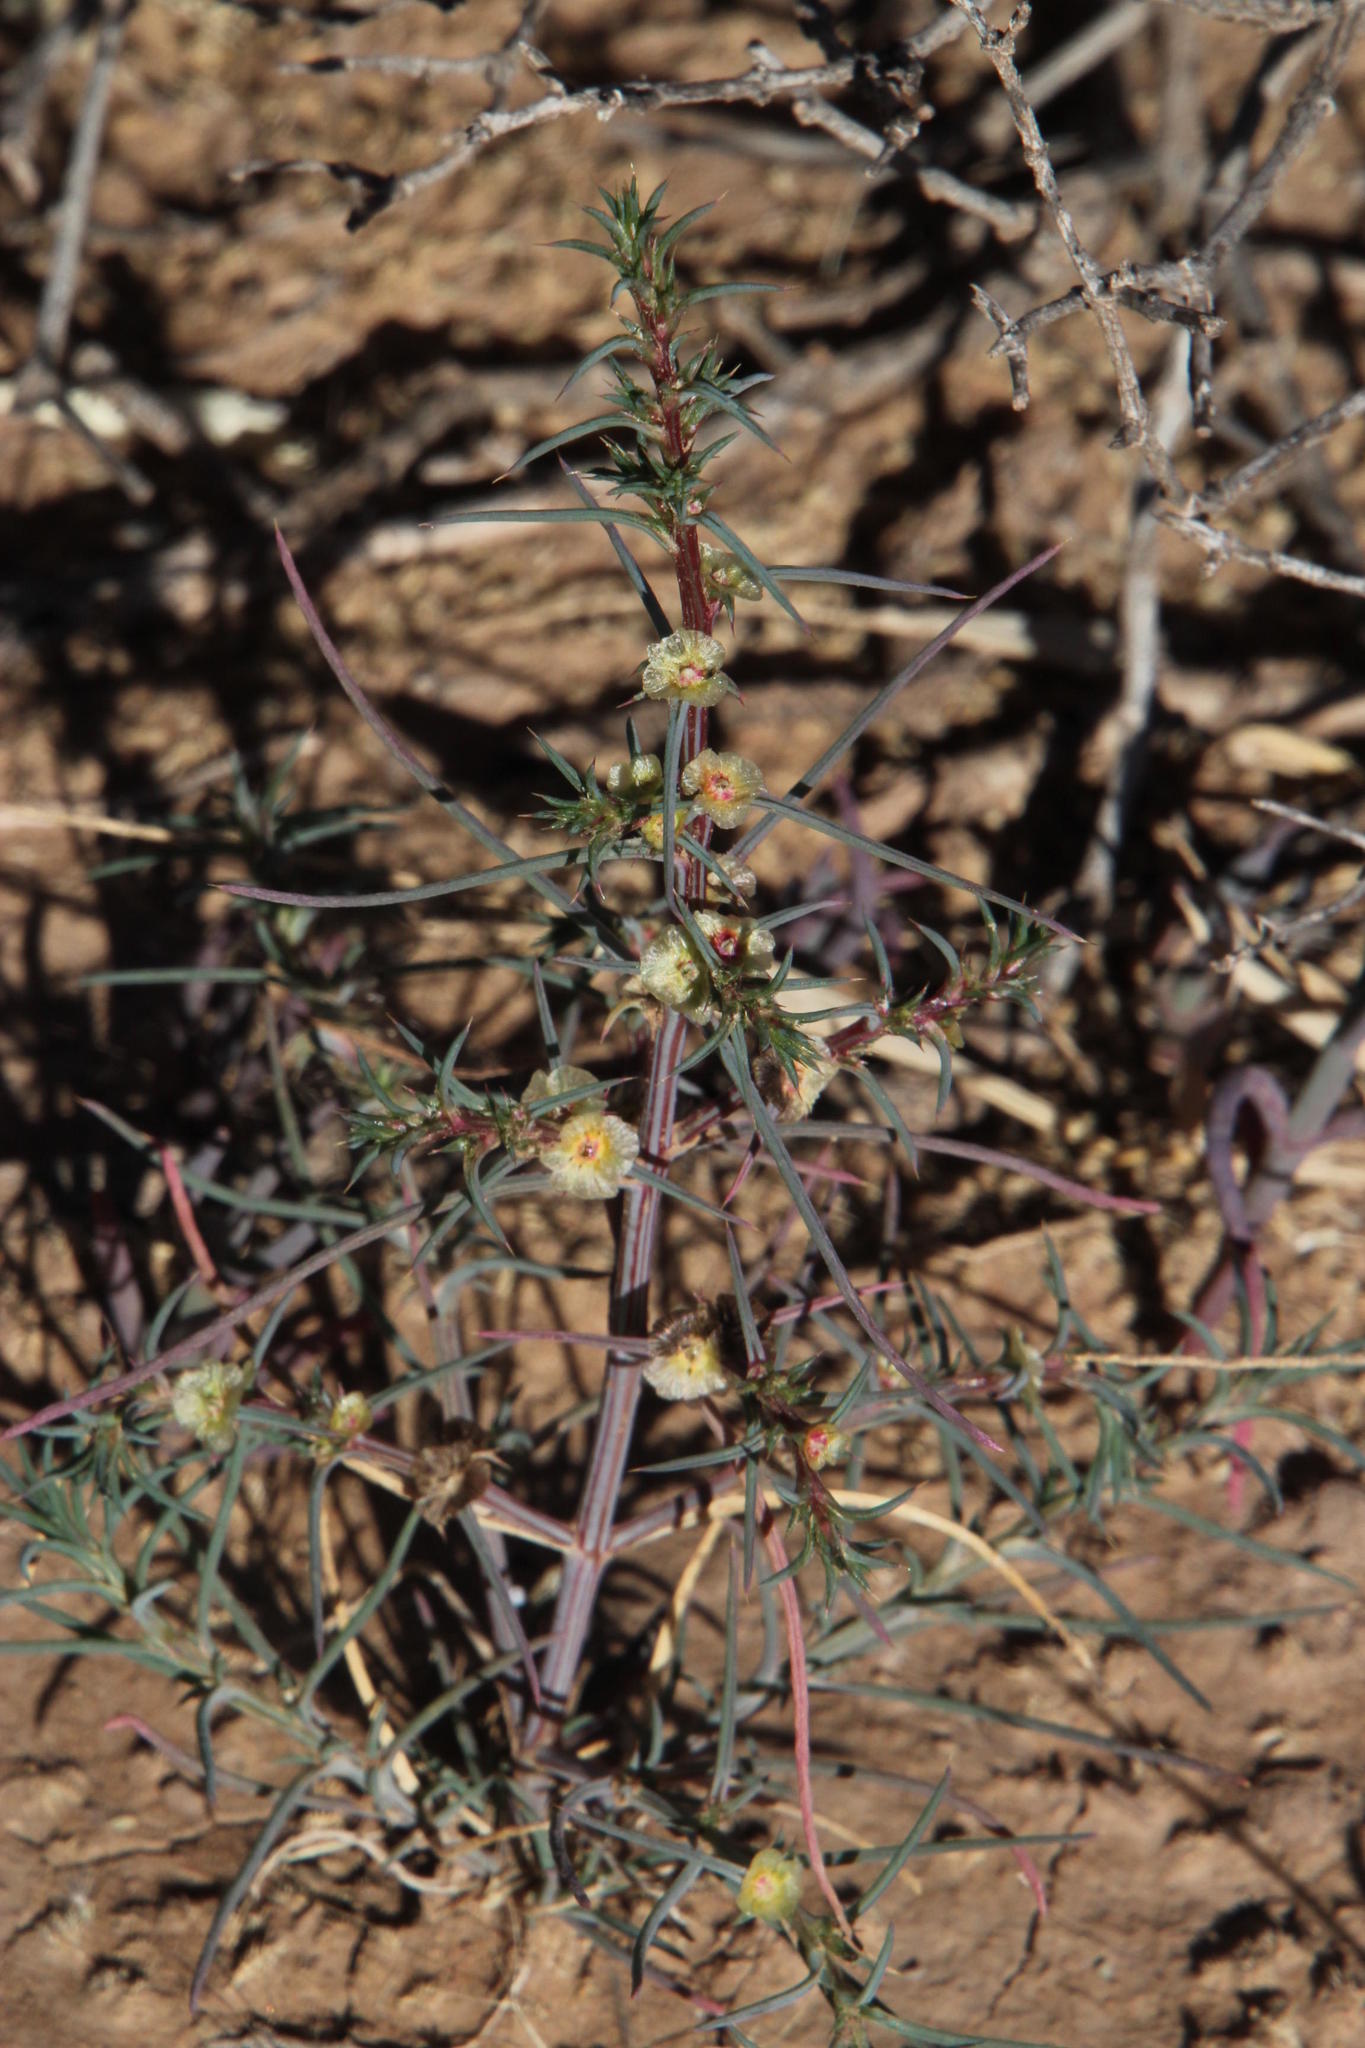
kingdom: Plantae
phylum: Tracheophyta
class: Magnoliopsida
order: Caryophyllales
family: Amaranthaceae
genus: Salsola
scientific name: Salsola kali
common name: Saltwort
